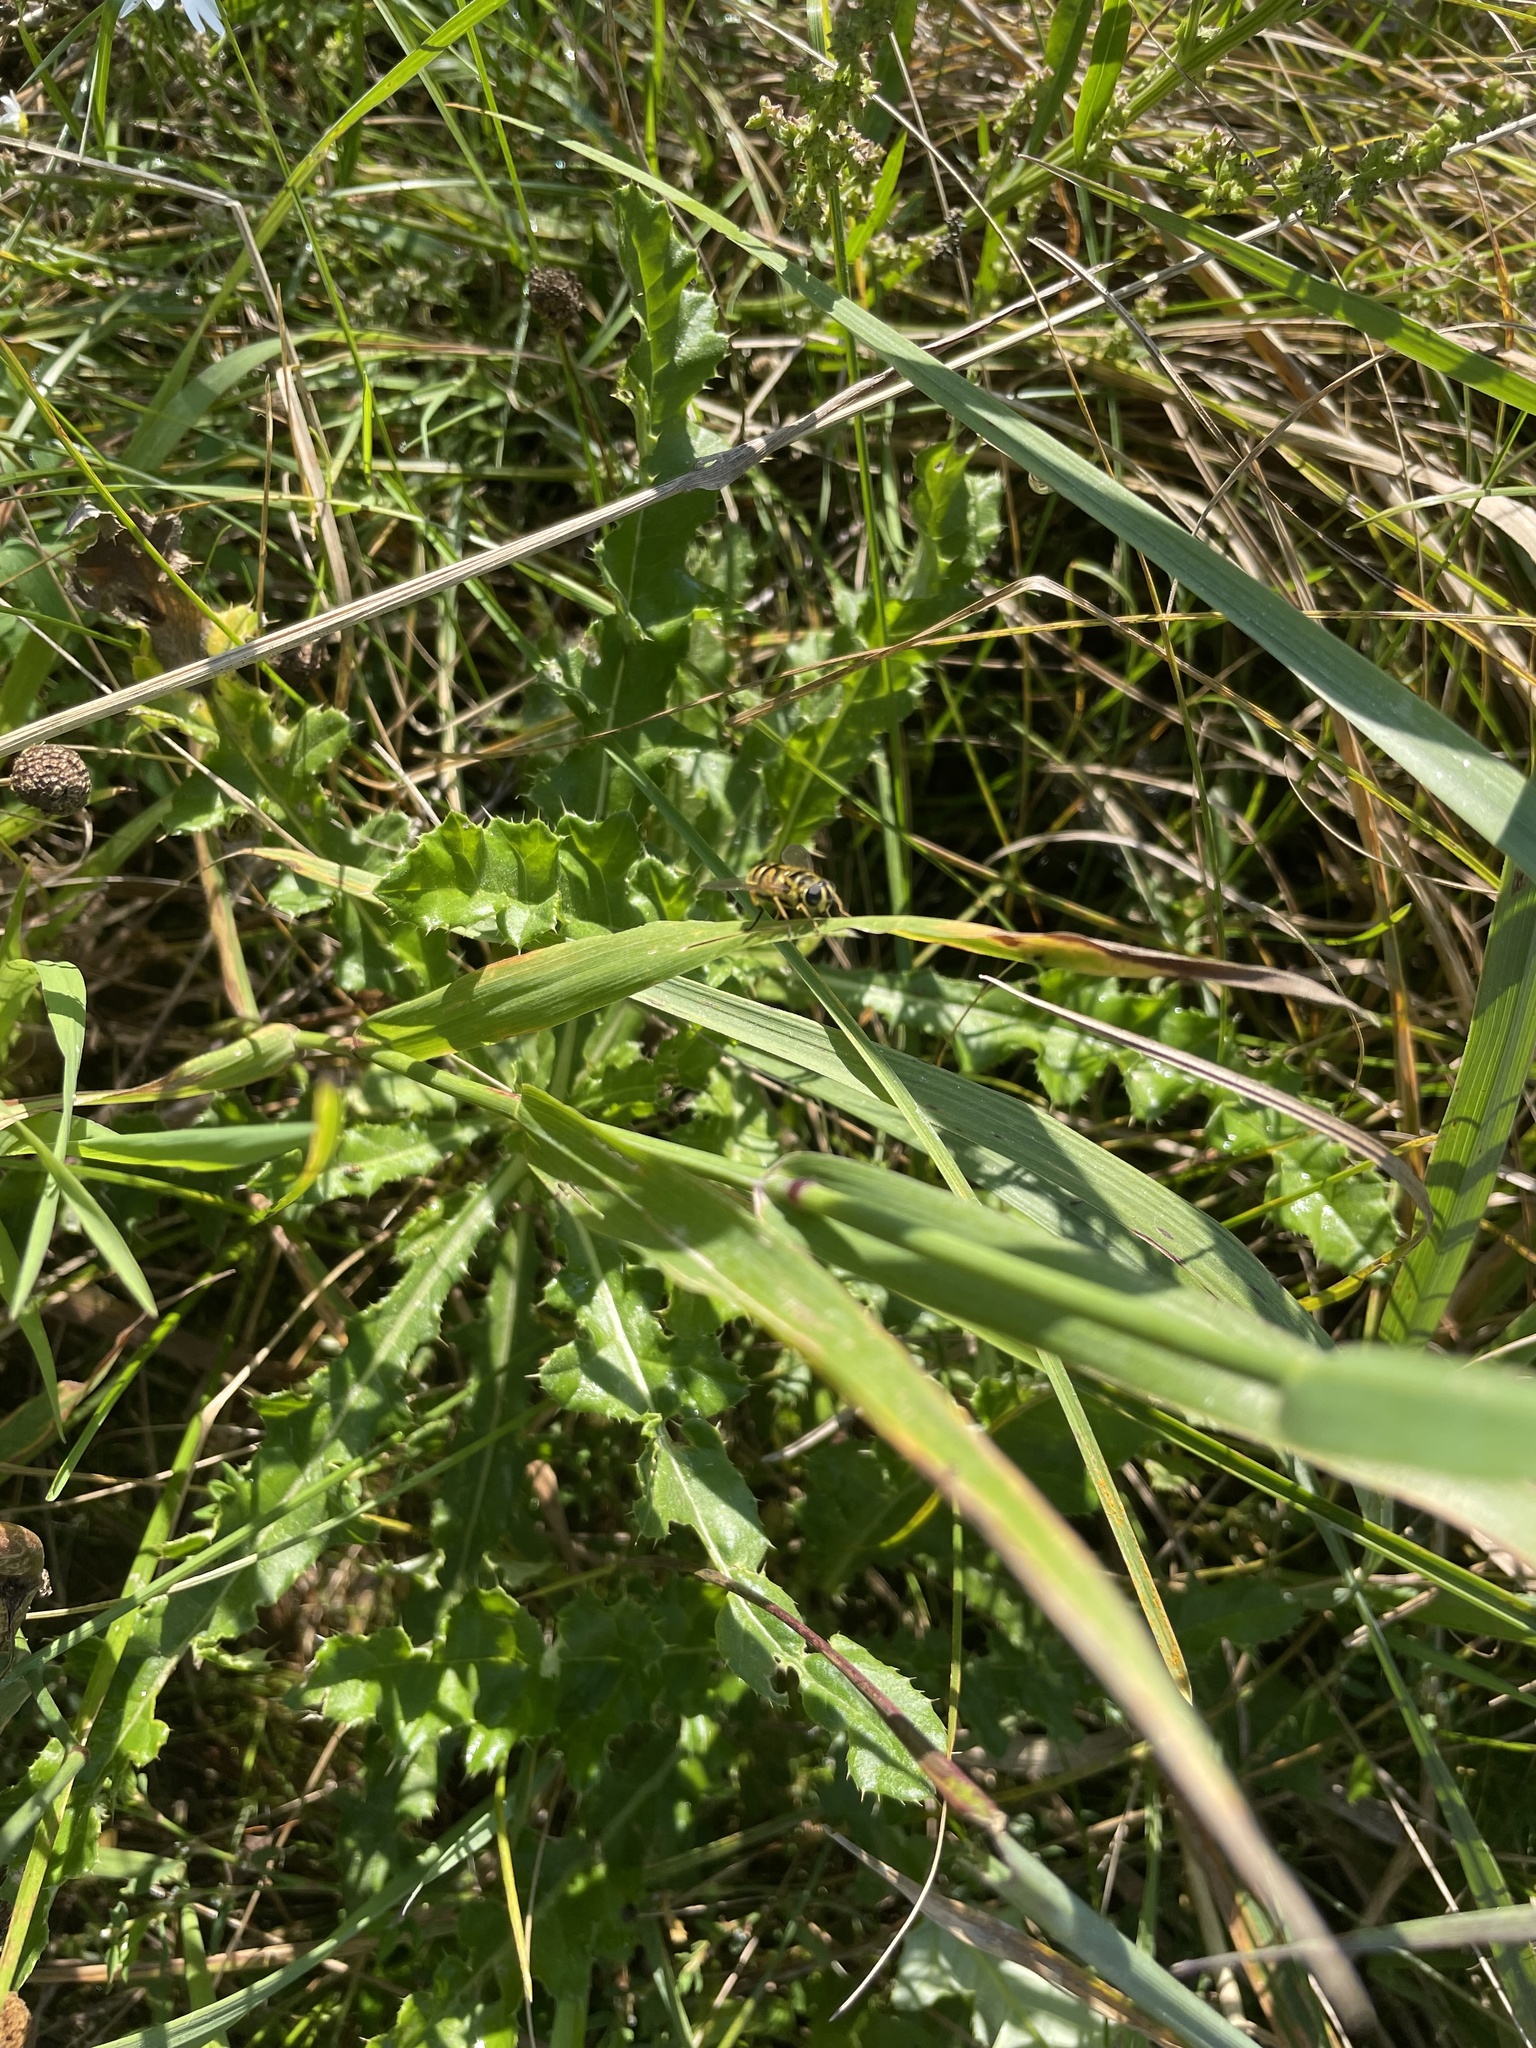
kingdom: Animalia
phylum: Arthropoda
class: Insecta
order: Diptera
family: Syrphidae
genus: Myathropa
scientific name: Myathropa florea
